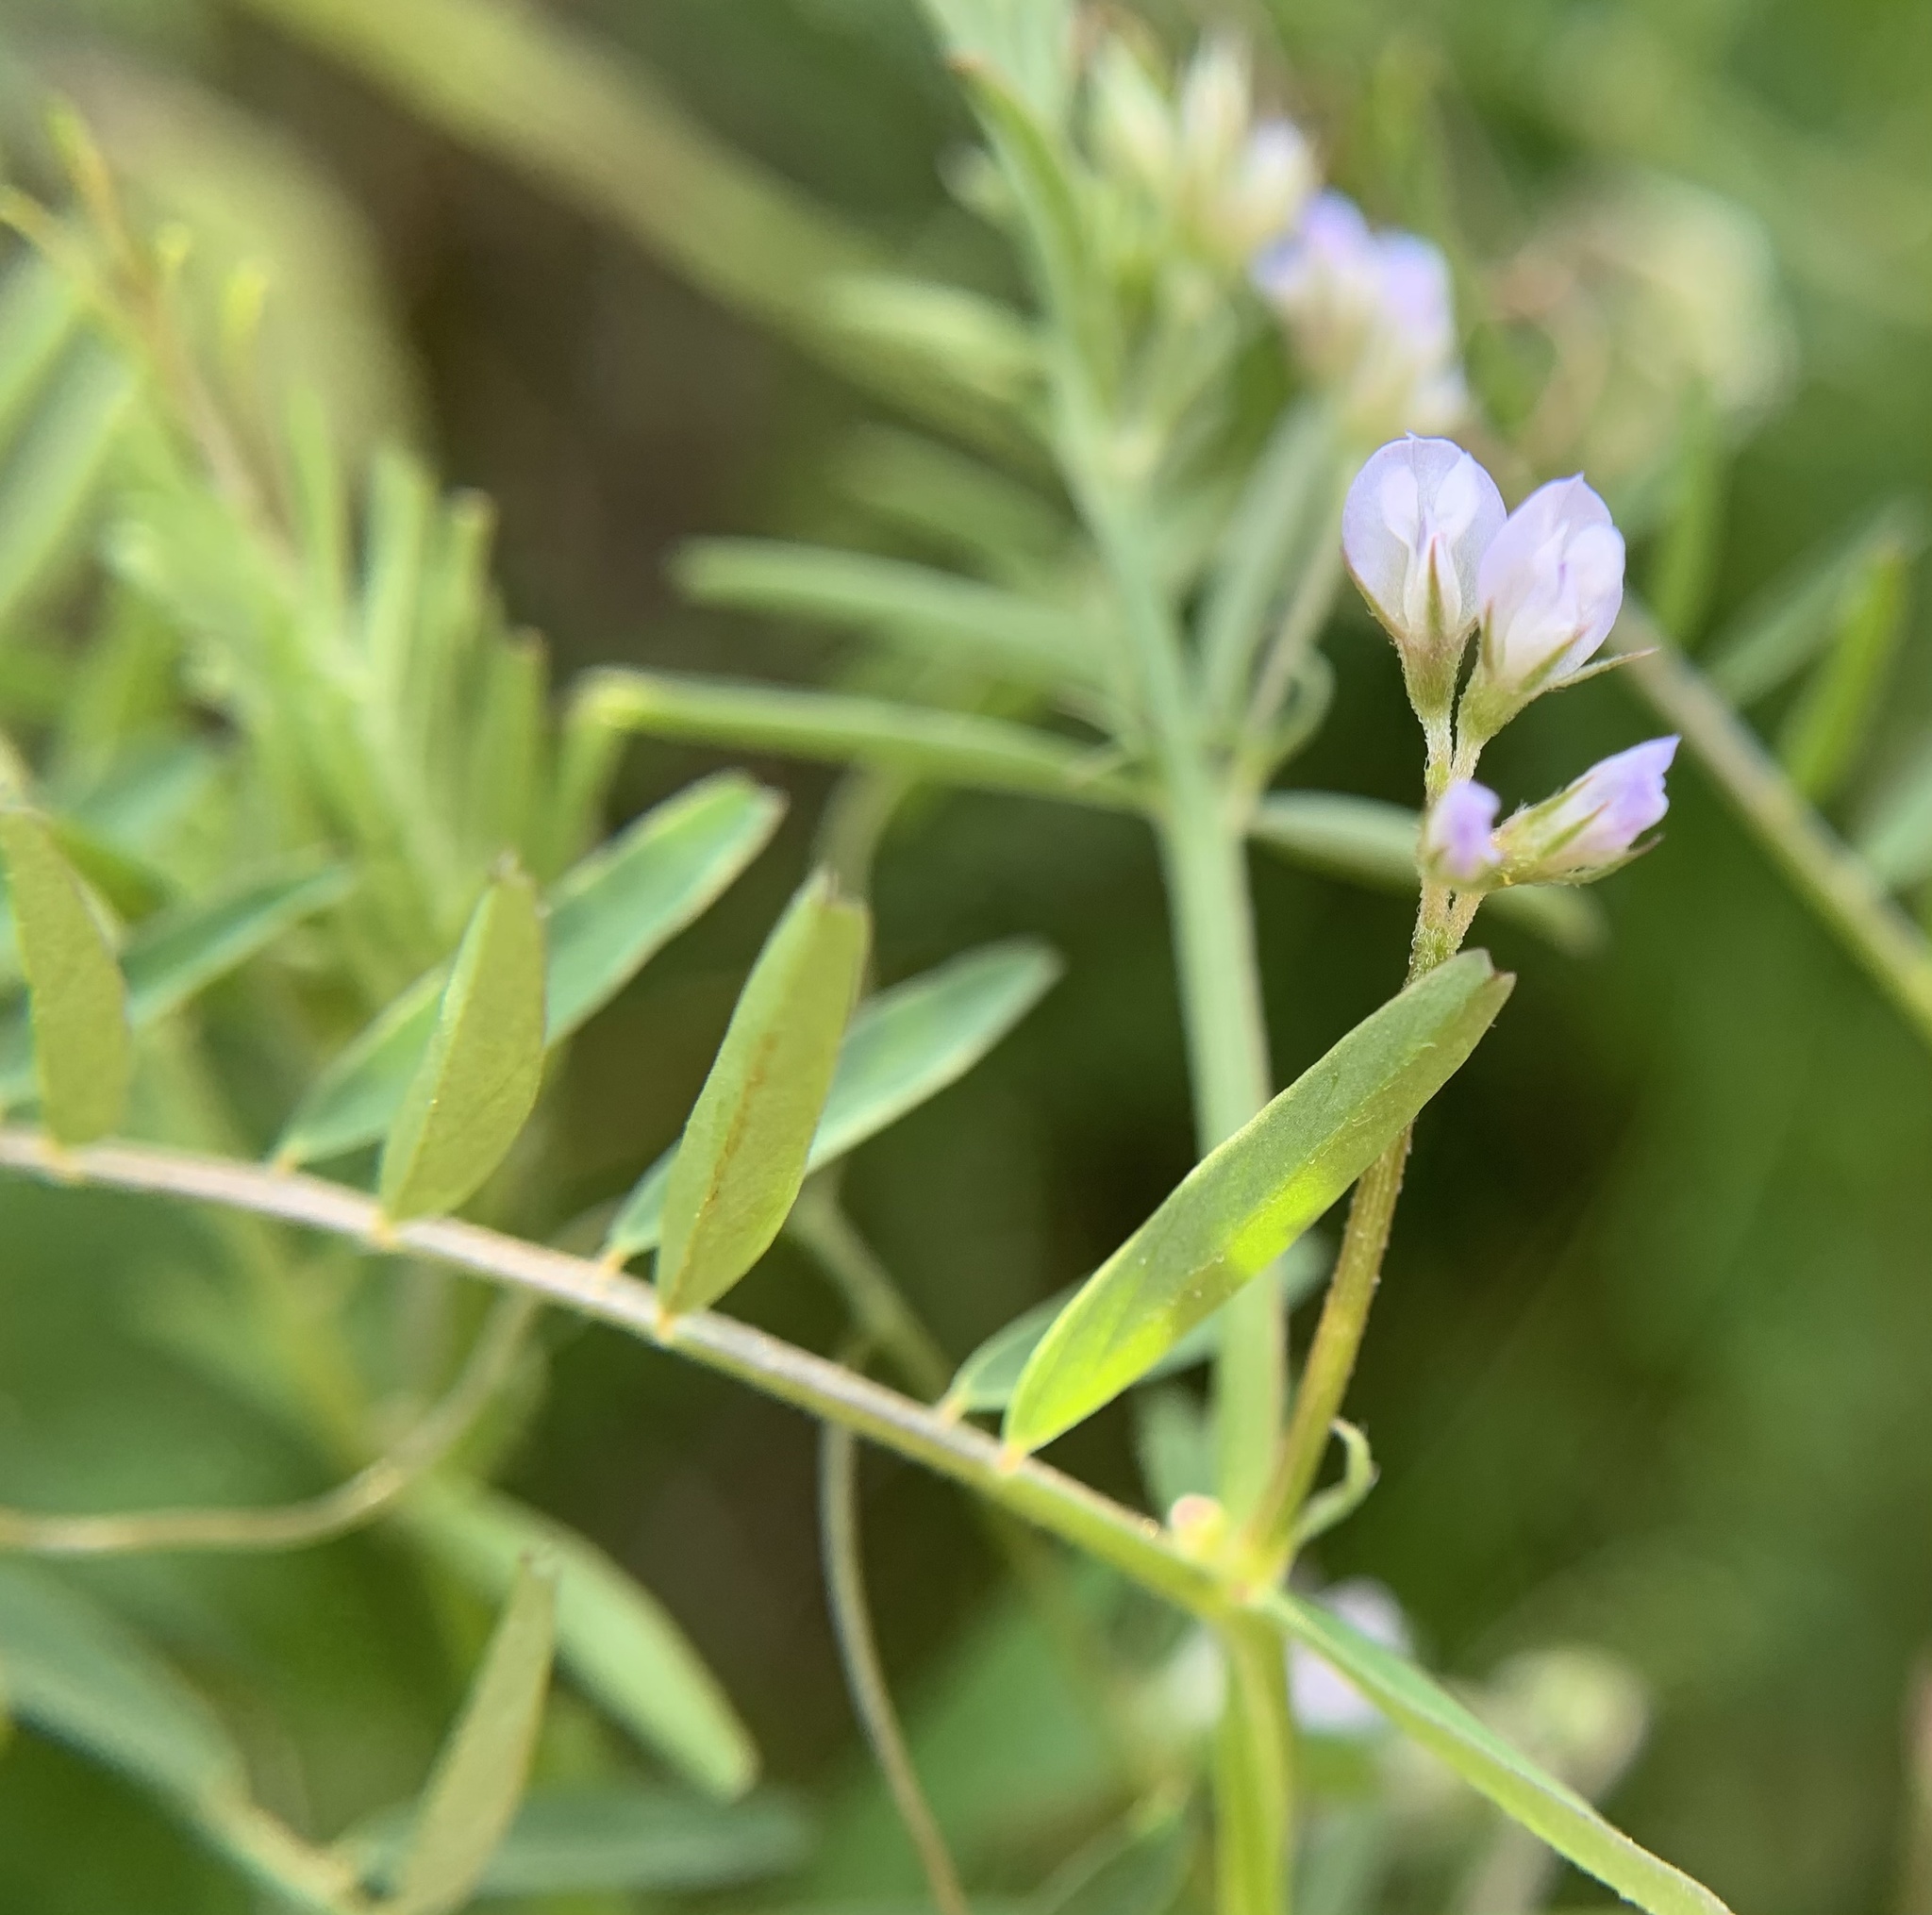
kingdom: Plantae
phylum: Tracheophyta
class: Magnoliopsida
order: Fabales
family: Fabaceae
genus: Vicia
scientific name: Vicia hirsuta
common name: Tiny vetch
